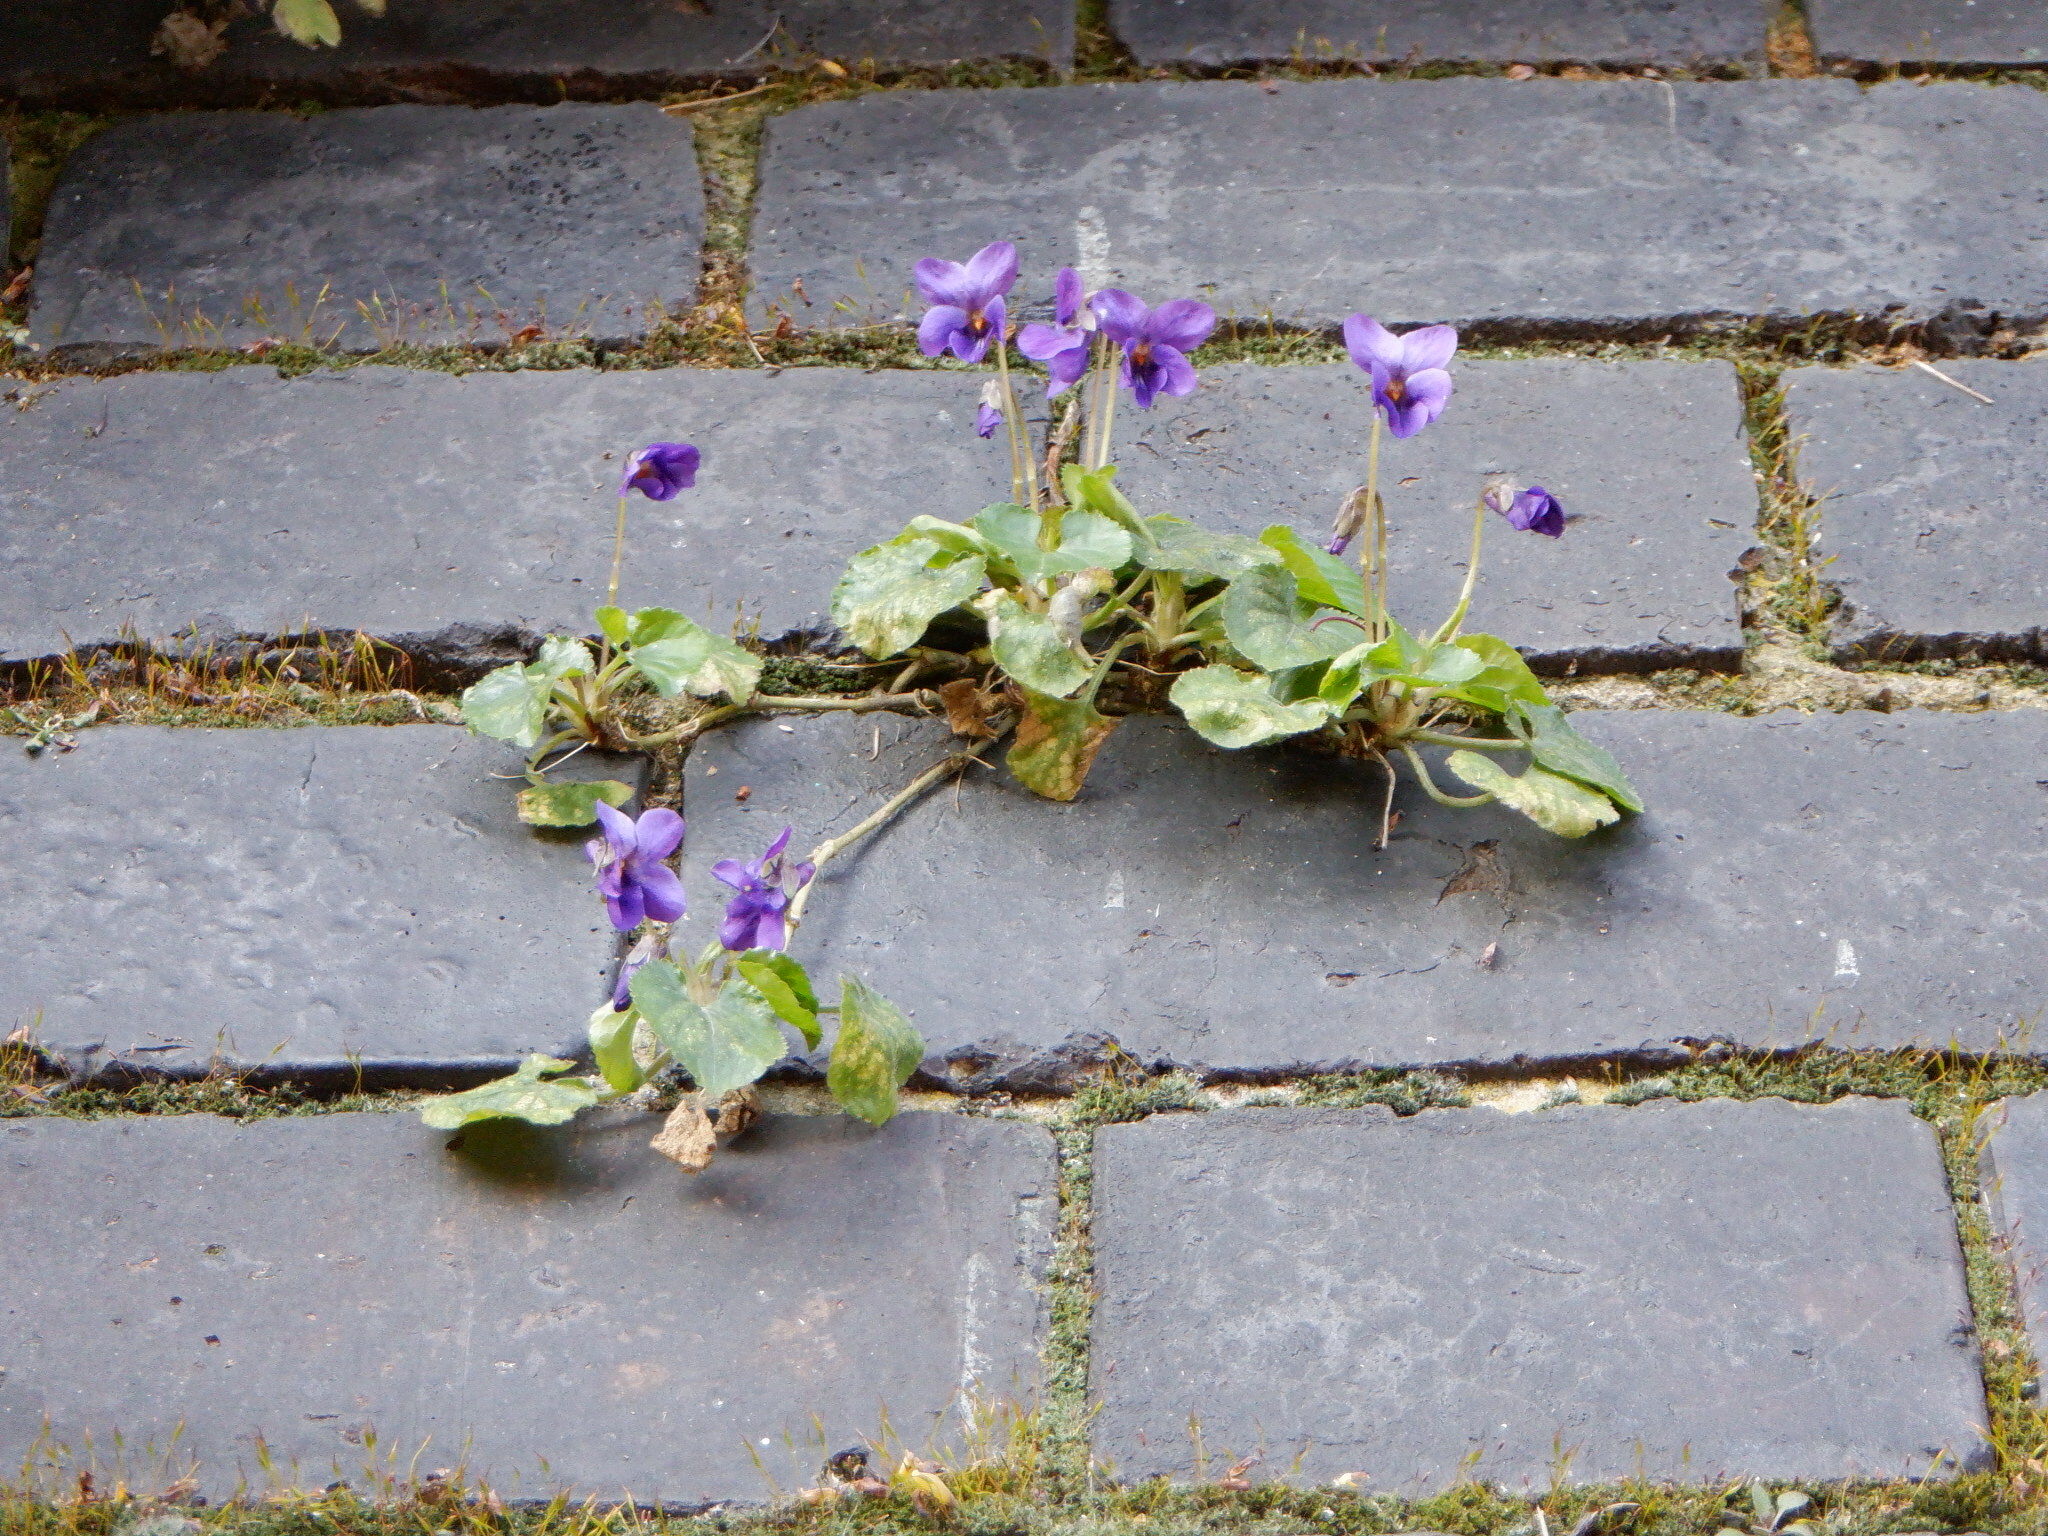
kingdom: Plantae
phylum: Tracheophyta
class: Magnoliopsida
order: Malpighiales
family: Violaceae
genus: Viola
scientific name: Viola odorata
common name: Sweet violet
